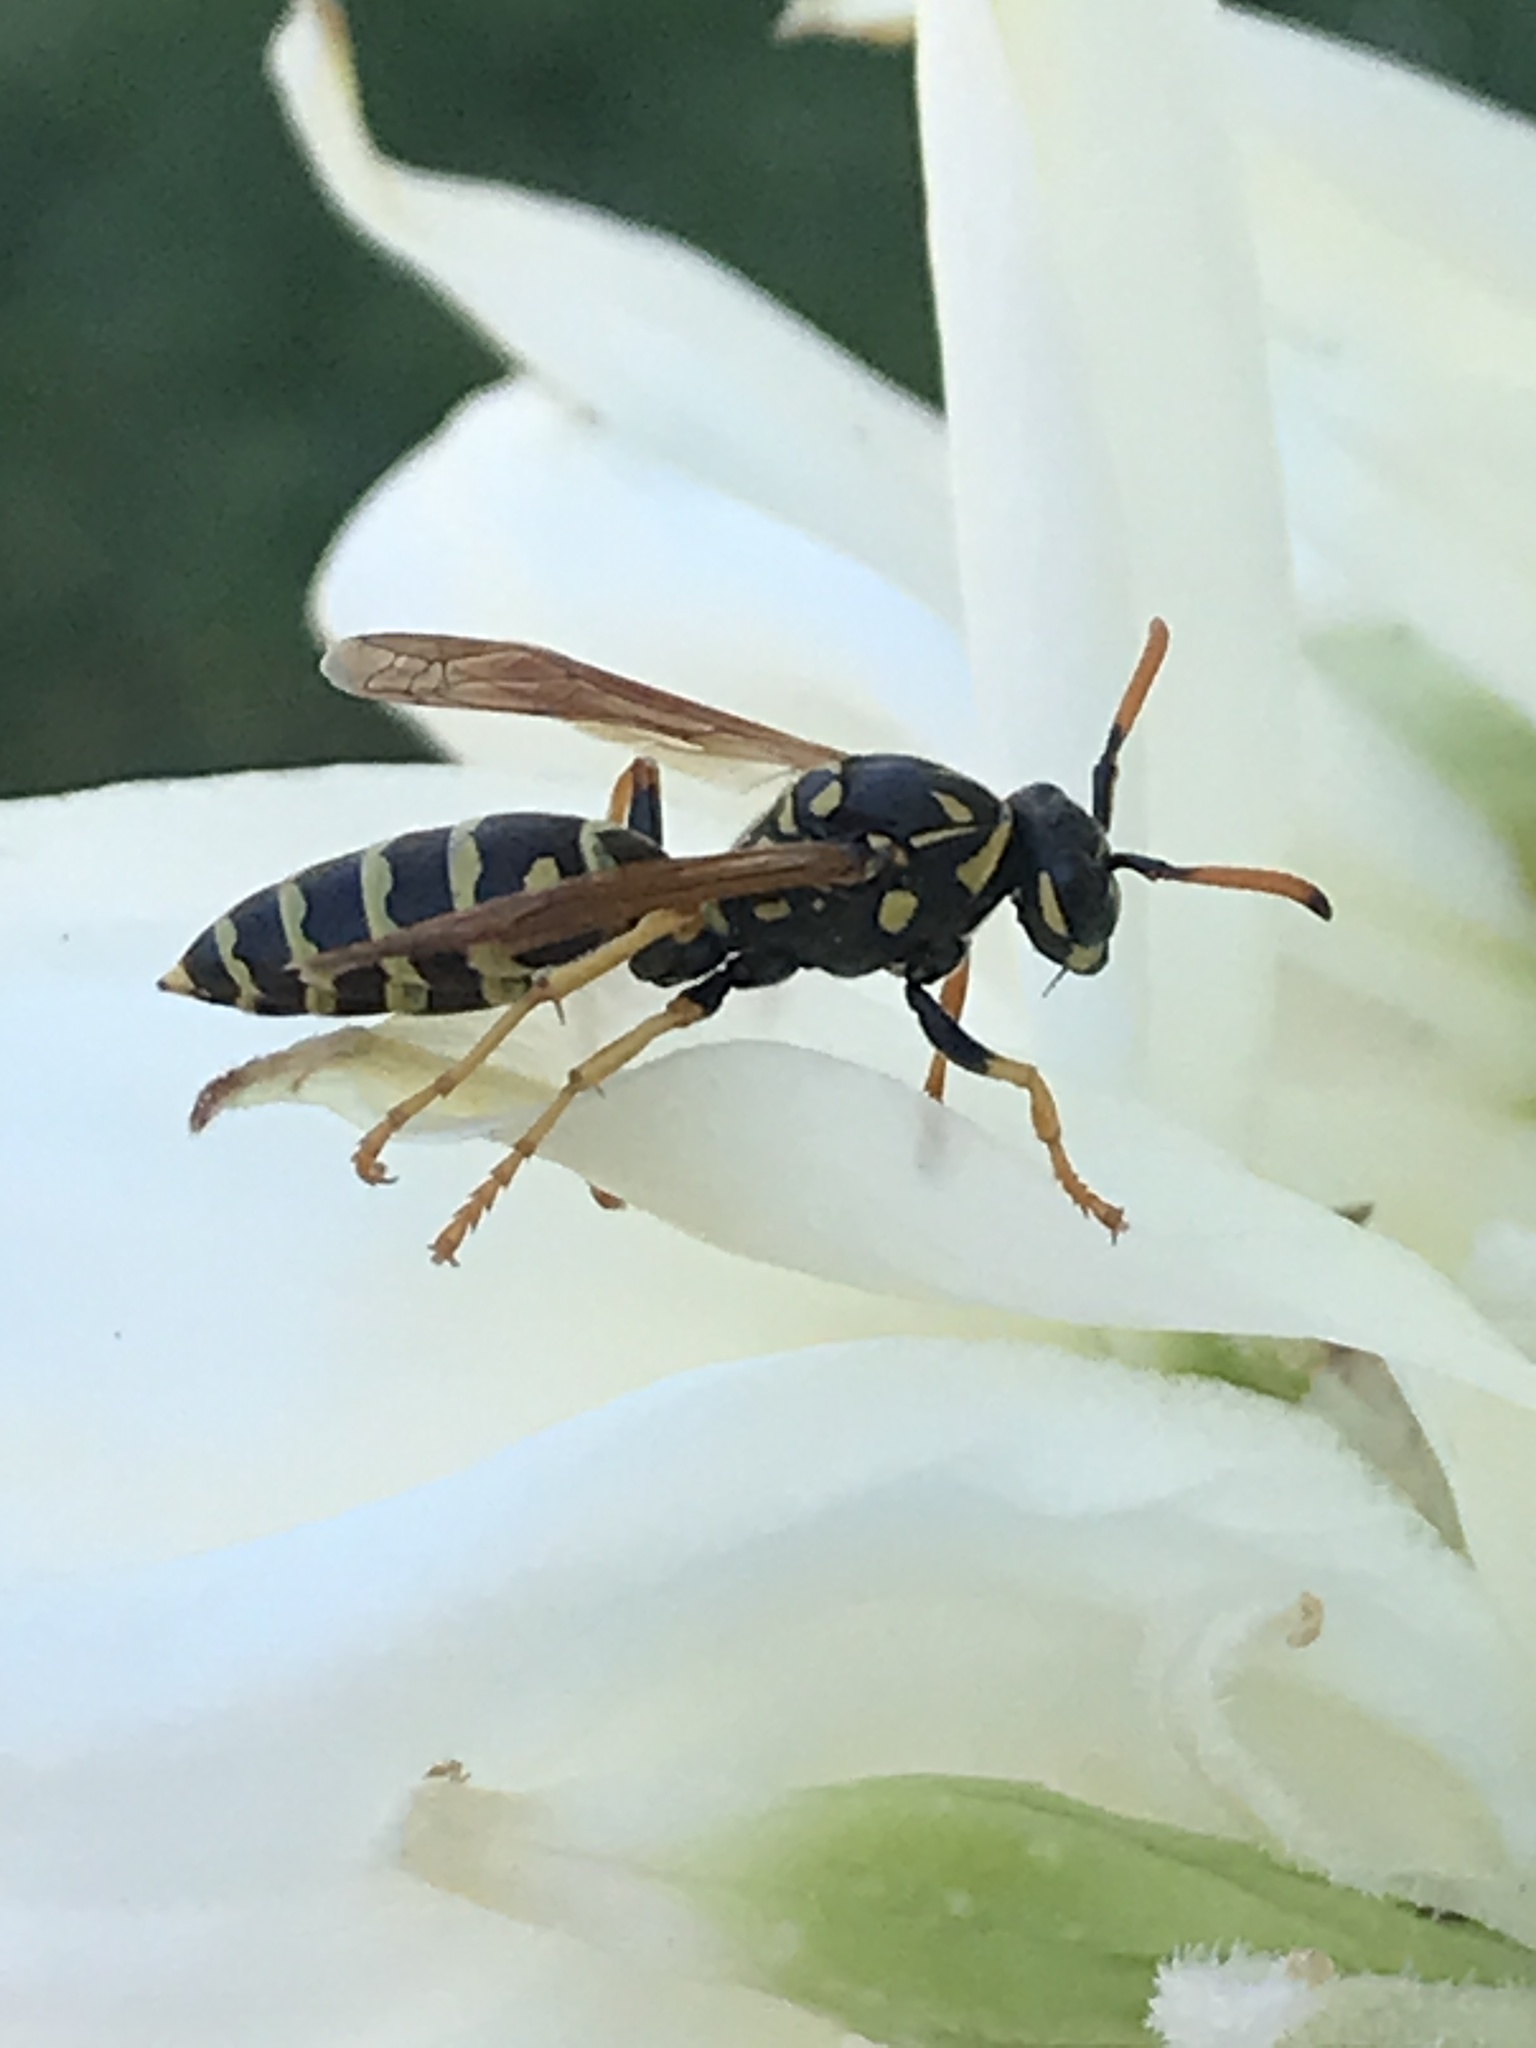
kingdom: Animalia
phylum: Arthropoda
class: Insecta
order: Hymenoptera
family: Eumenidae
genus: Polistes
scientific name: Polistes dominula
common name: Paper wasp
